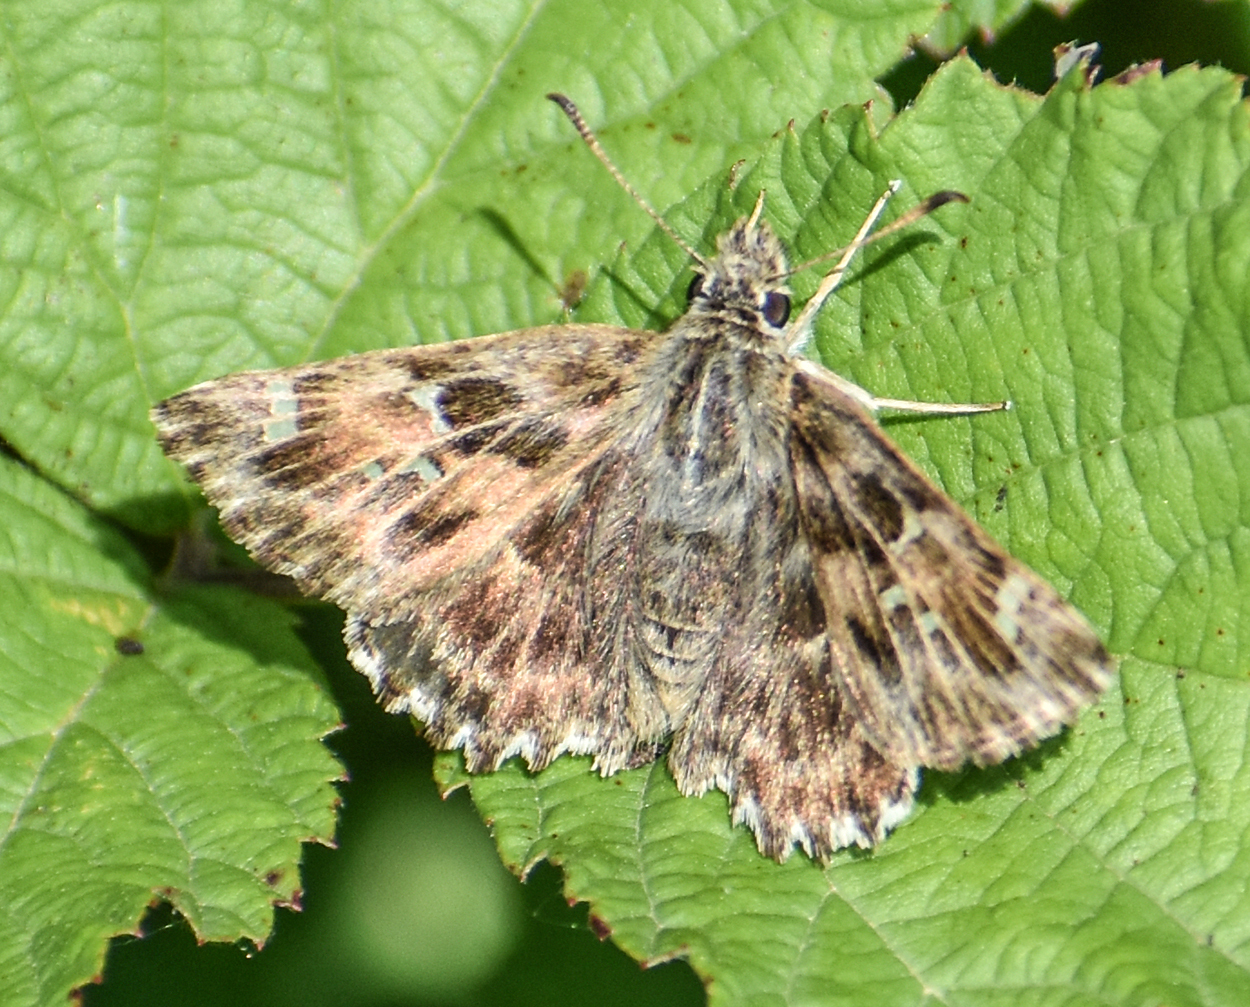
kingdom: Animalia
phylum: Arthropoda
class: Insecta
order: Lepidoptera
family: Hesperiidae
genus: Carcharodus
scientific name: Carcharodus alceae
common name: Mallow skipper
